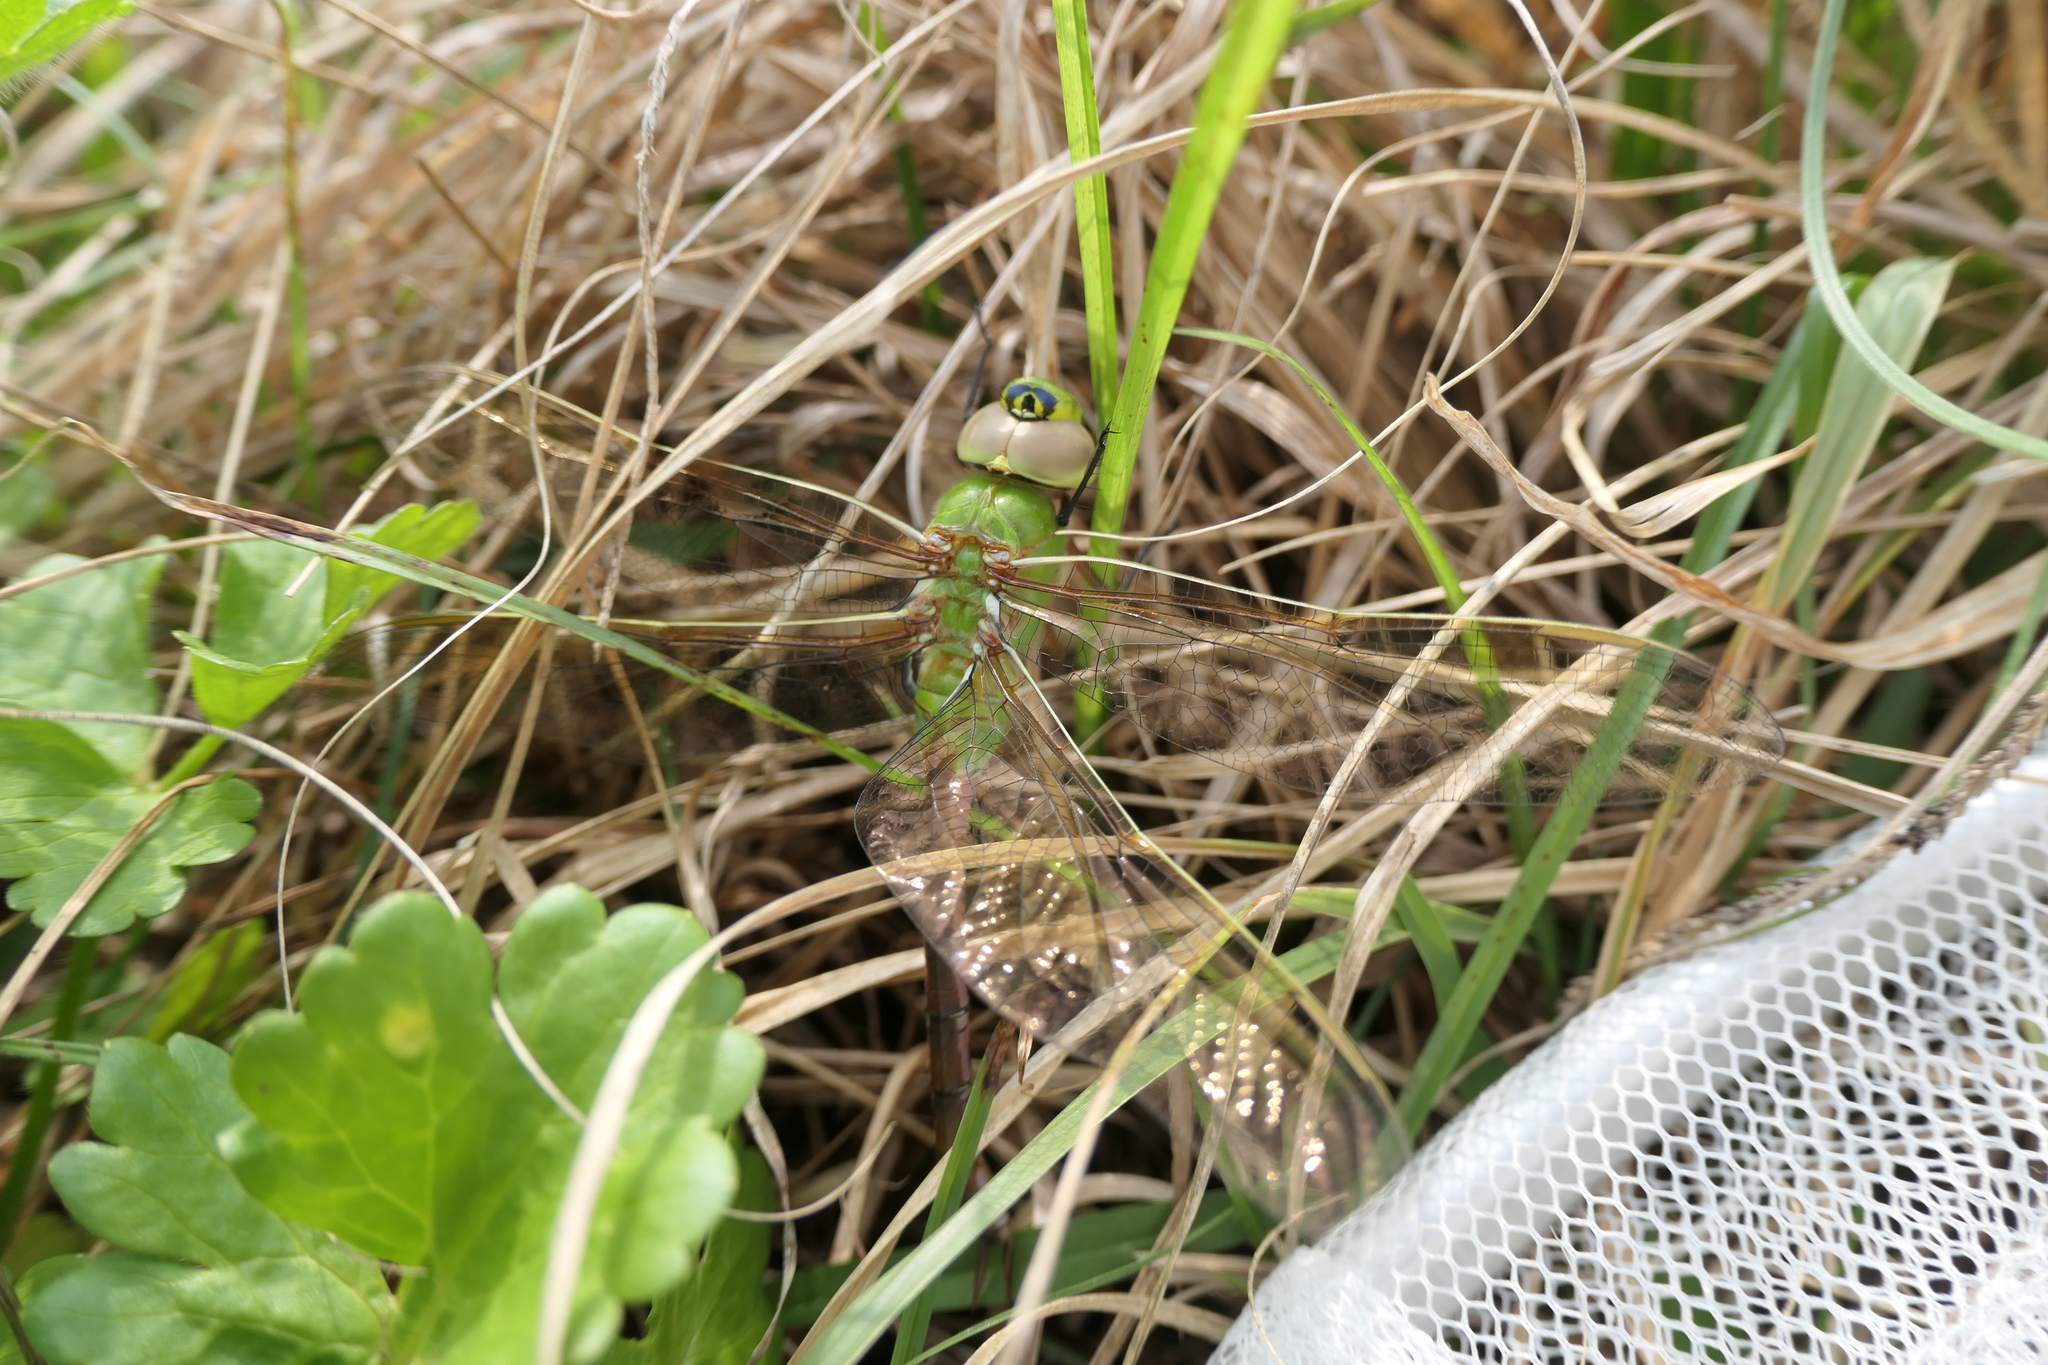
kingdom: Animalia
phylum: Arthropoda
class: Insecta
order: Odonata
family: Aeshnidae
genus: Anax
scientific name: Anax junius
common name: Common green darner
